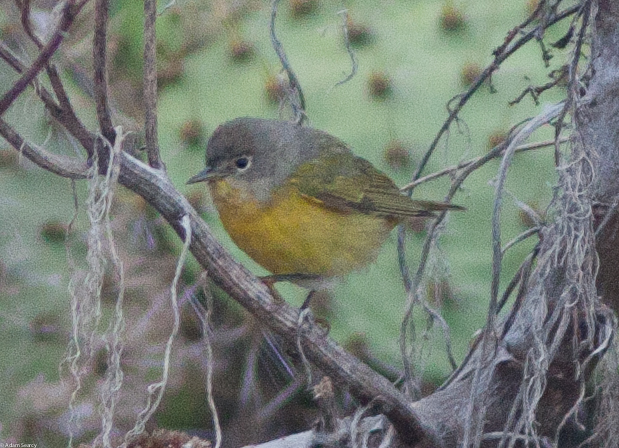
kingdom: Animalia
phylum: Chordata
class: Aves
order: Passeriformes
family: Parulidae
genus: Leiothlypis
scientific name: Leiothlypis ruficapilla
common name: Nashville warbler
